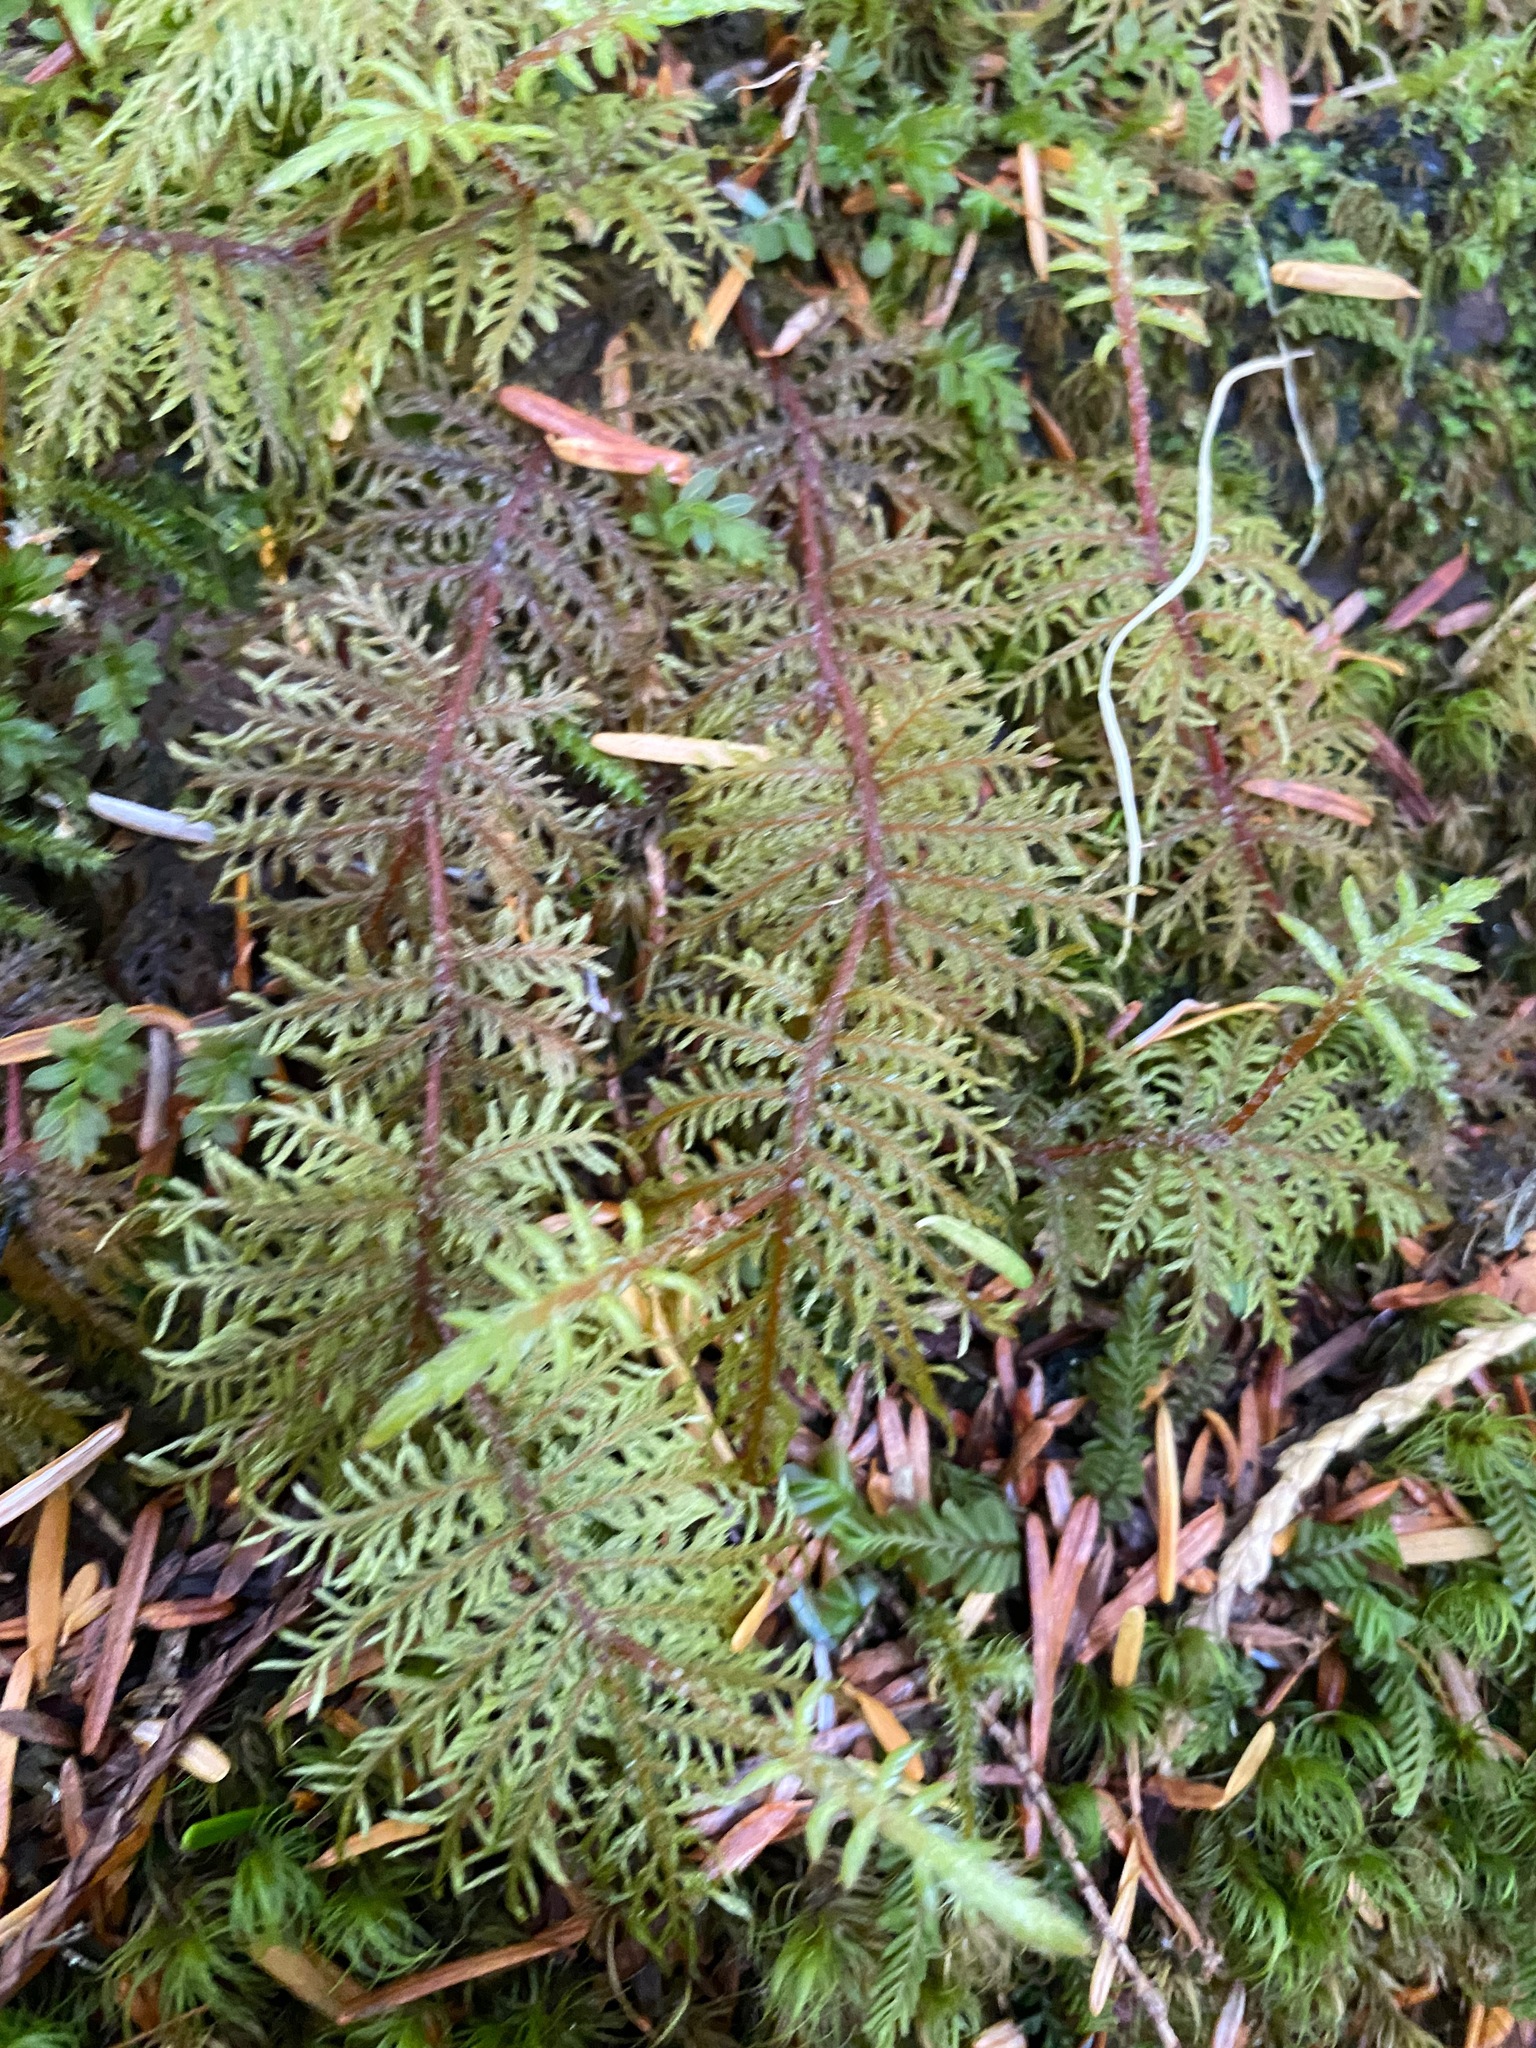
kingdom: Plantae
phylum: Bryophyta
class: Bryopsida
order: Hypnales
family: Hylocomiaceae
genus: Hylocomium
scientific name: Hylocomium splendens
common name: Stairstep moss
